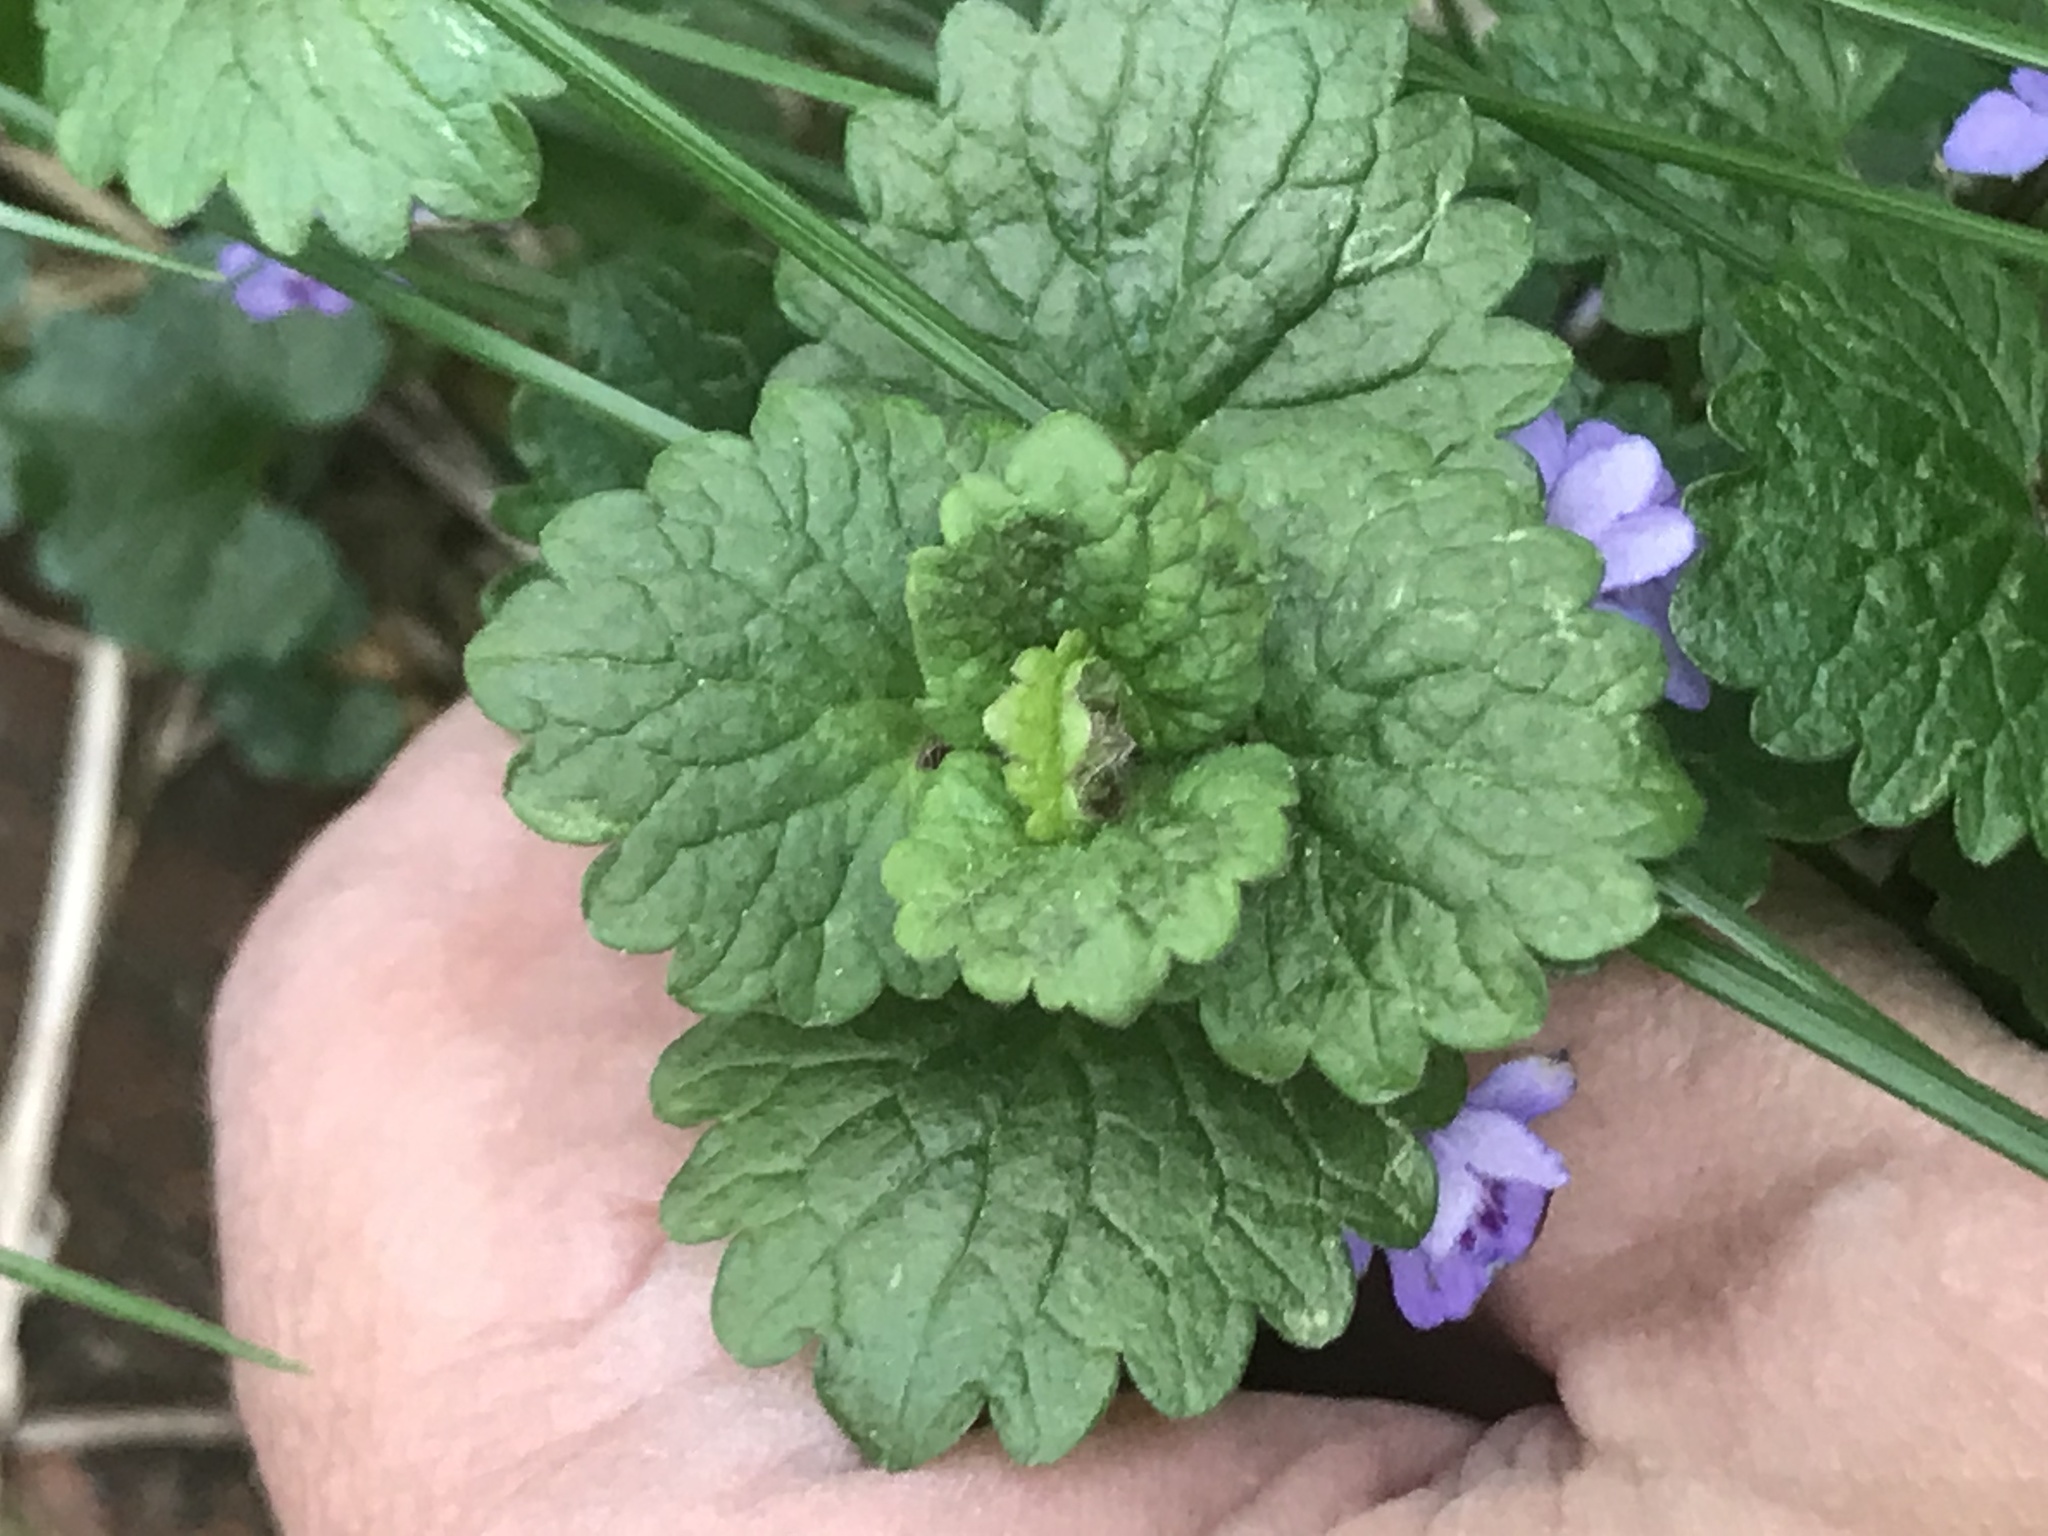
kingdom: Plantae
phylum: Tracheophyta
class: Magnoliopsida
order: Lamiales
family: Lamiaceae
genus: Glechoma
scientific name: Glechoma hederacea
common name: Ground ivy
